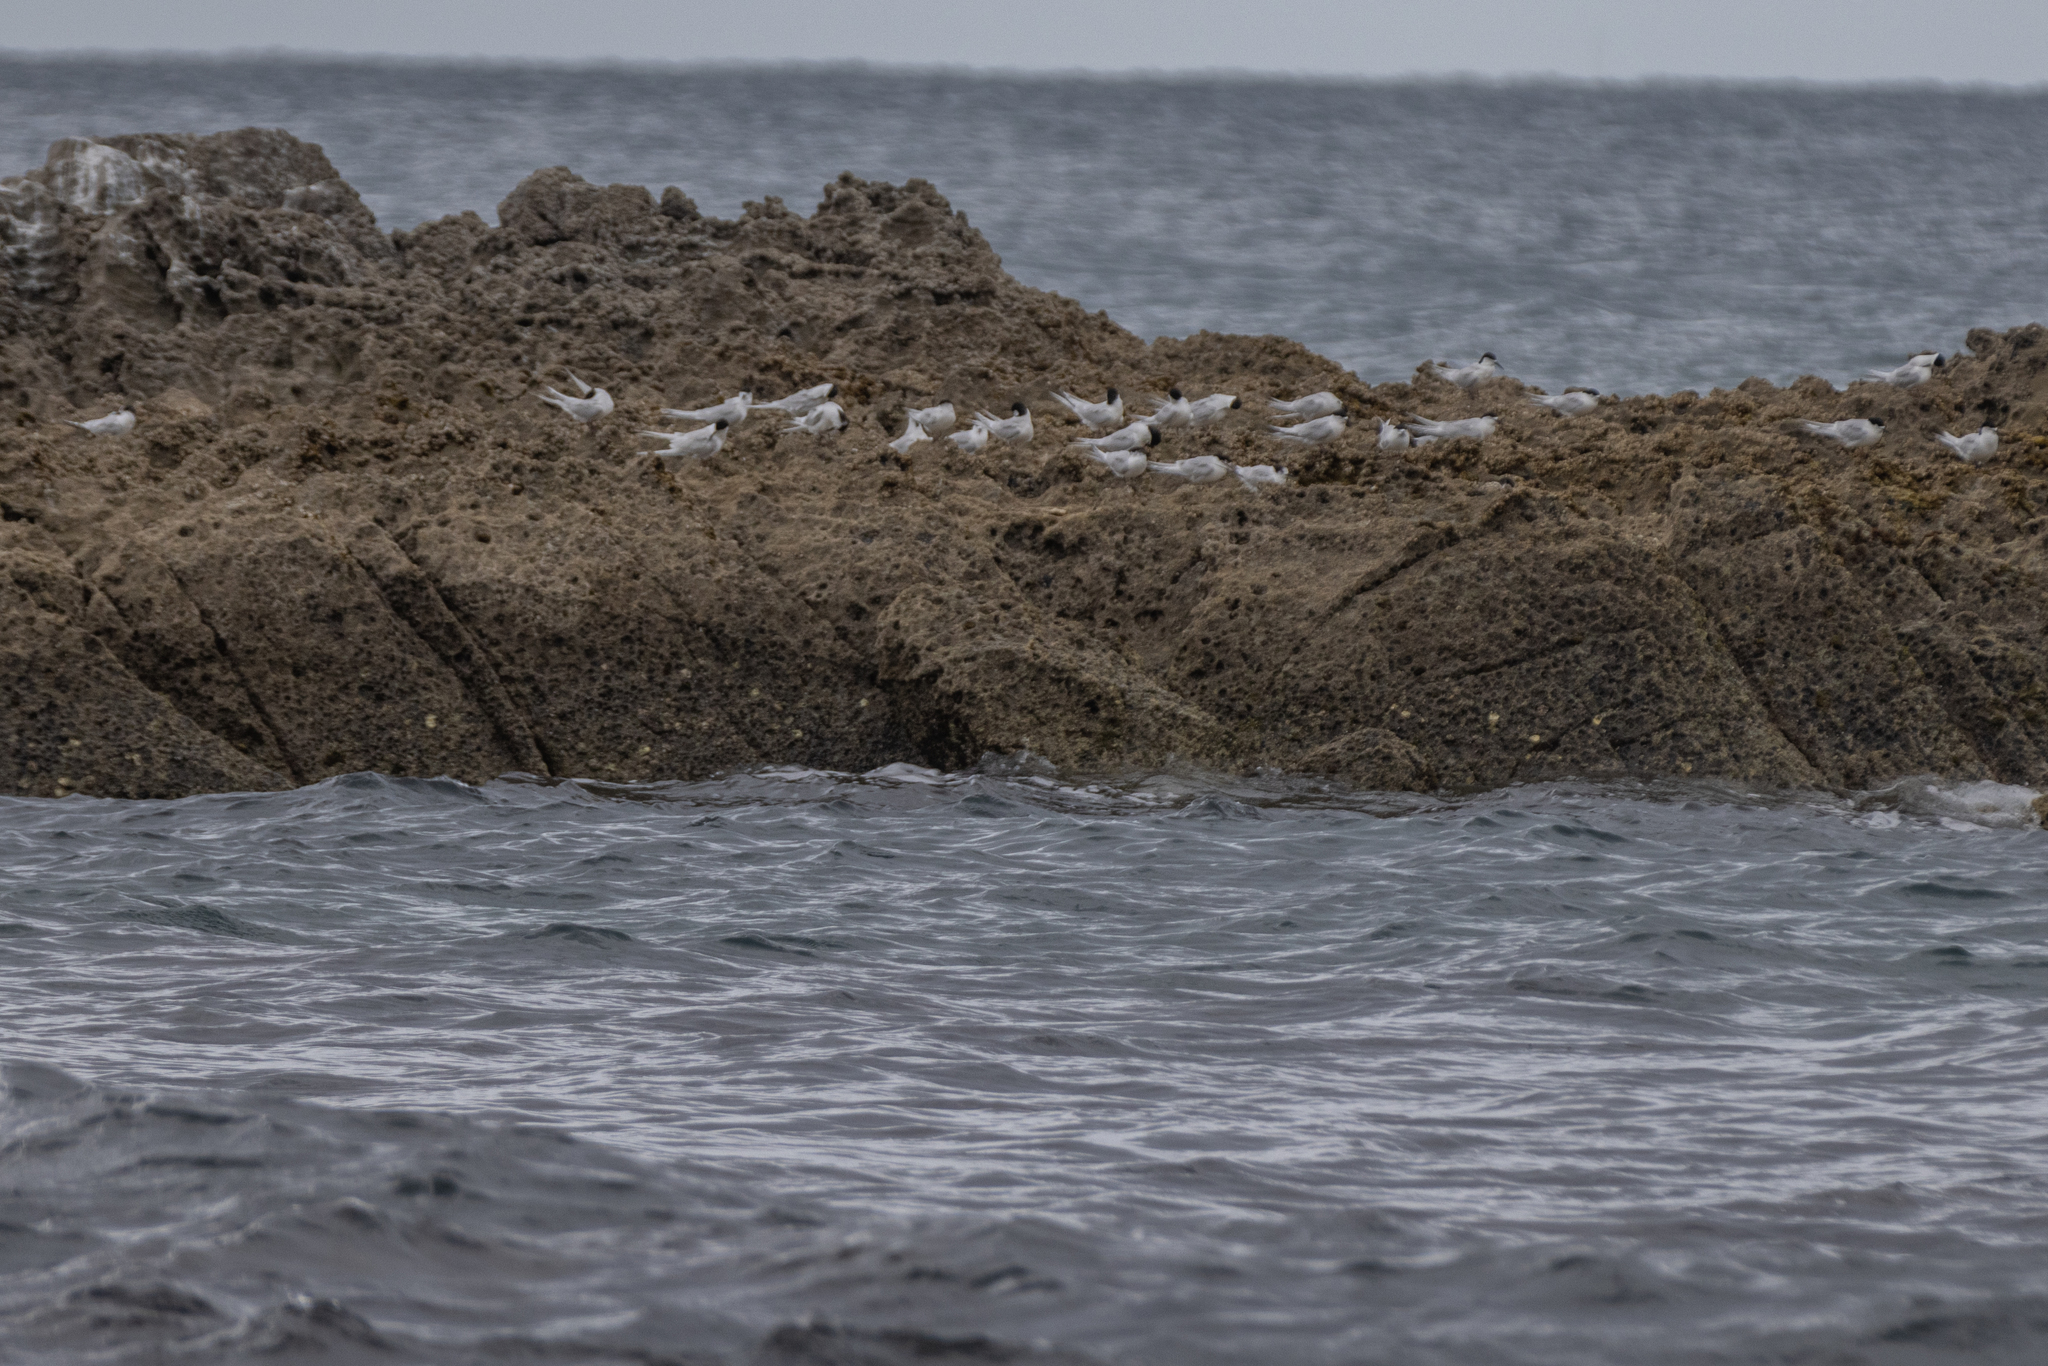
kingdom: Animalia
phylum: Chordata
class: Aves
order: Charadriiformes
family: Laridae
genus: Sterna
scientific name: Sterna striata
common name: White-fronted tern
